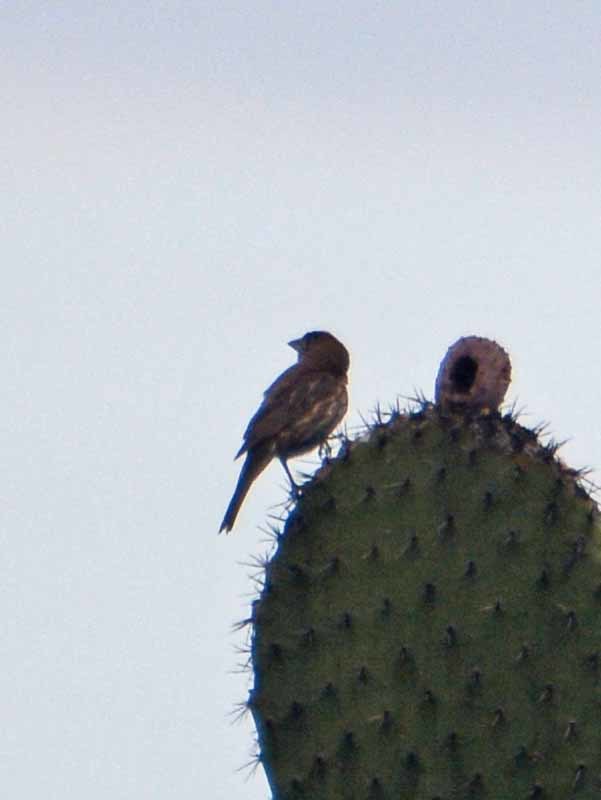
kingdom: Animalia
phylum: Chordata
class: Aves
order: Passeriformes
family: Fringillidae
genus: Haemorhous
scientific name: Haemorhous mexicanus
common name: House finch
